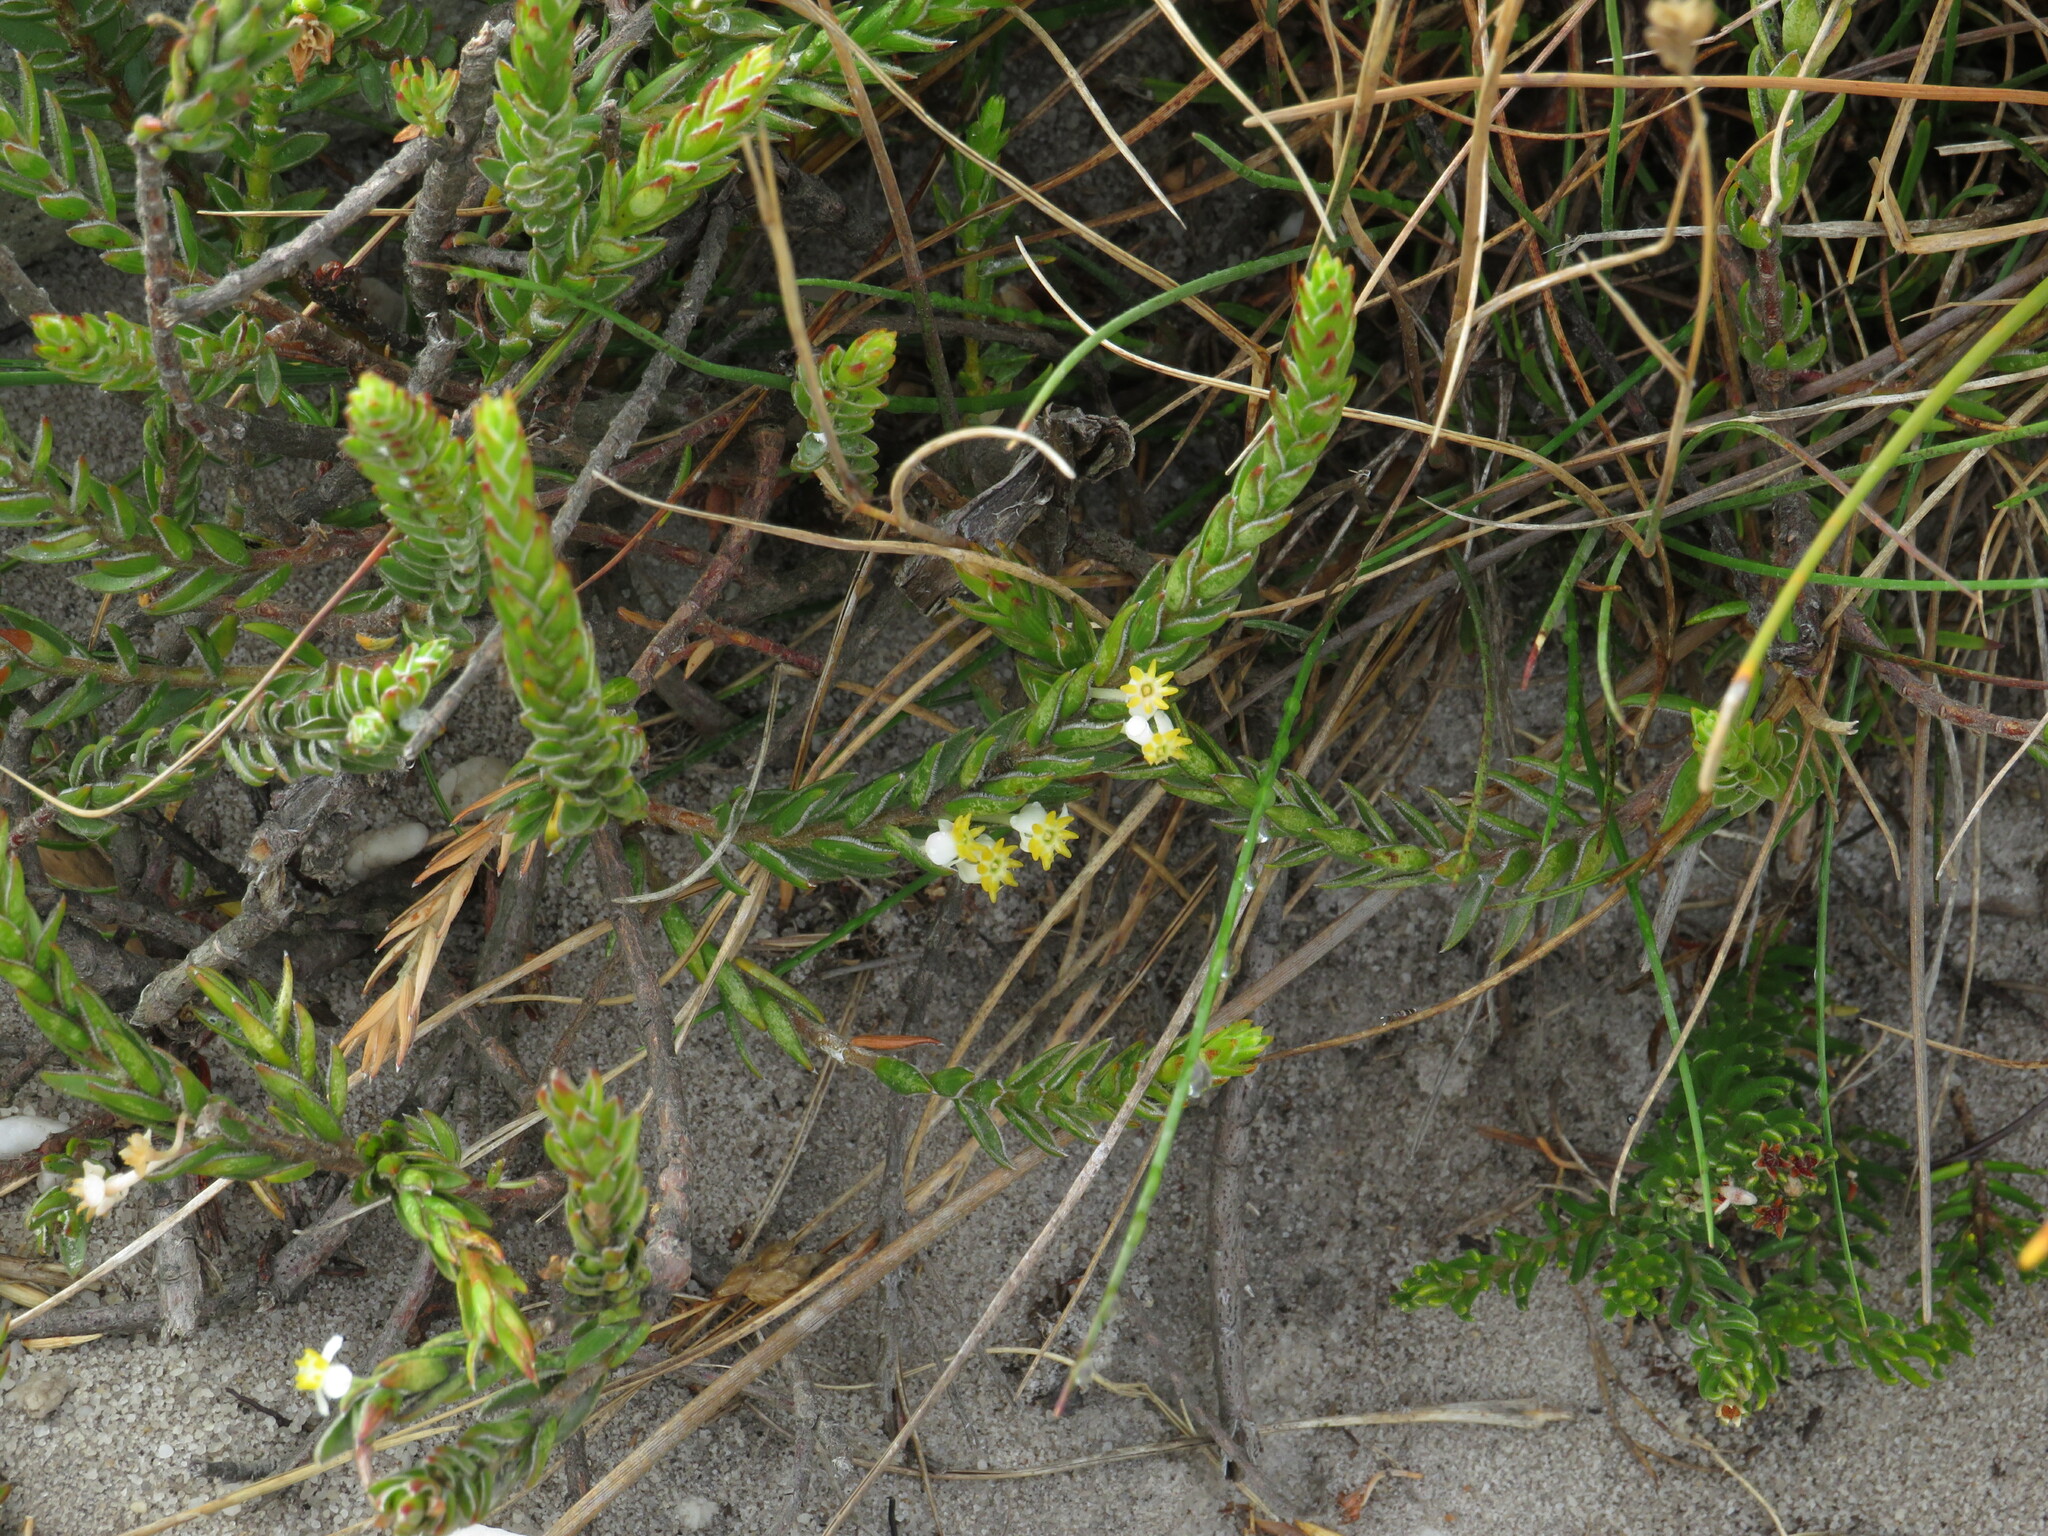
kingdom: Plantae
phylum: Tracheophyta
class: Magnoliopsida
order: Malvales
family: Thymelaeaceae
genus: Struthiola
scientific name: Struthiola ciliata
